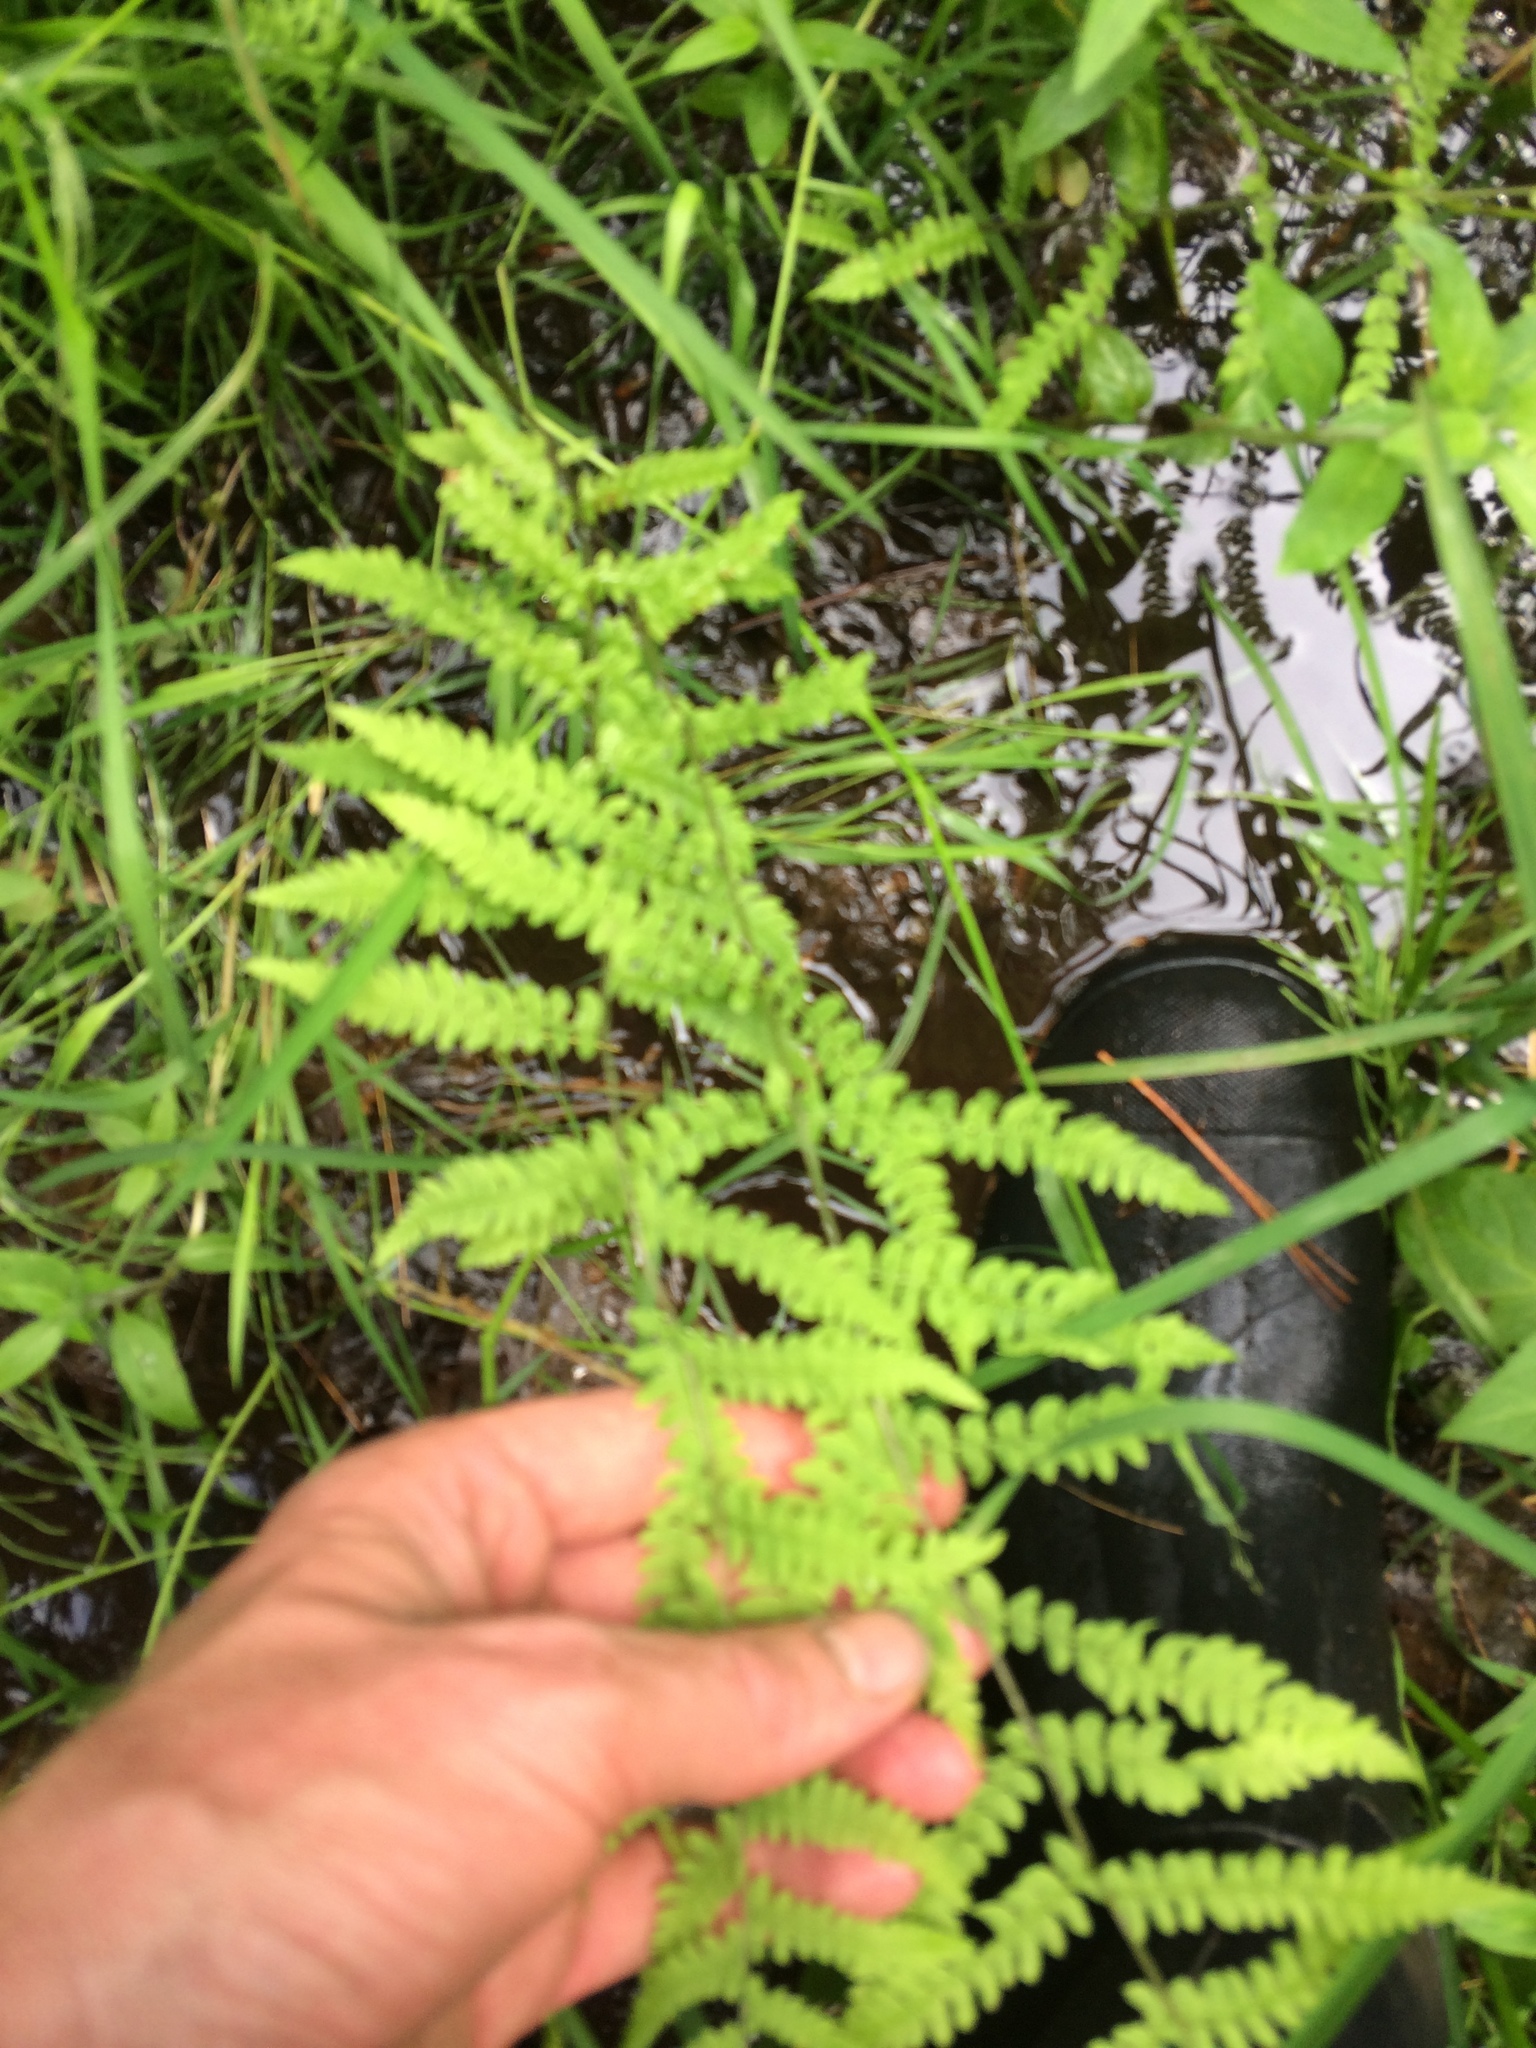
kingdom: Plantae
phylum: Tracheophyta
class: Polypodiopsida
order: Polypodiales
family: Thelypteridaceae
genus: Thelypteris
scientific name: Thelypteris palustris
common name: Marsh fern
